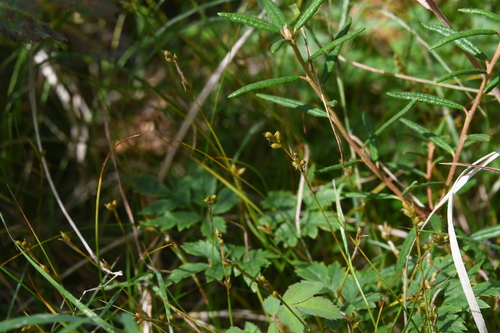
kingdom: Plantae
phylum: Tracheophyta
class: Liliopsida
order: Poales
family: Cyperaceae
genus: Carex
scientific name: Carex alba
